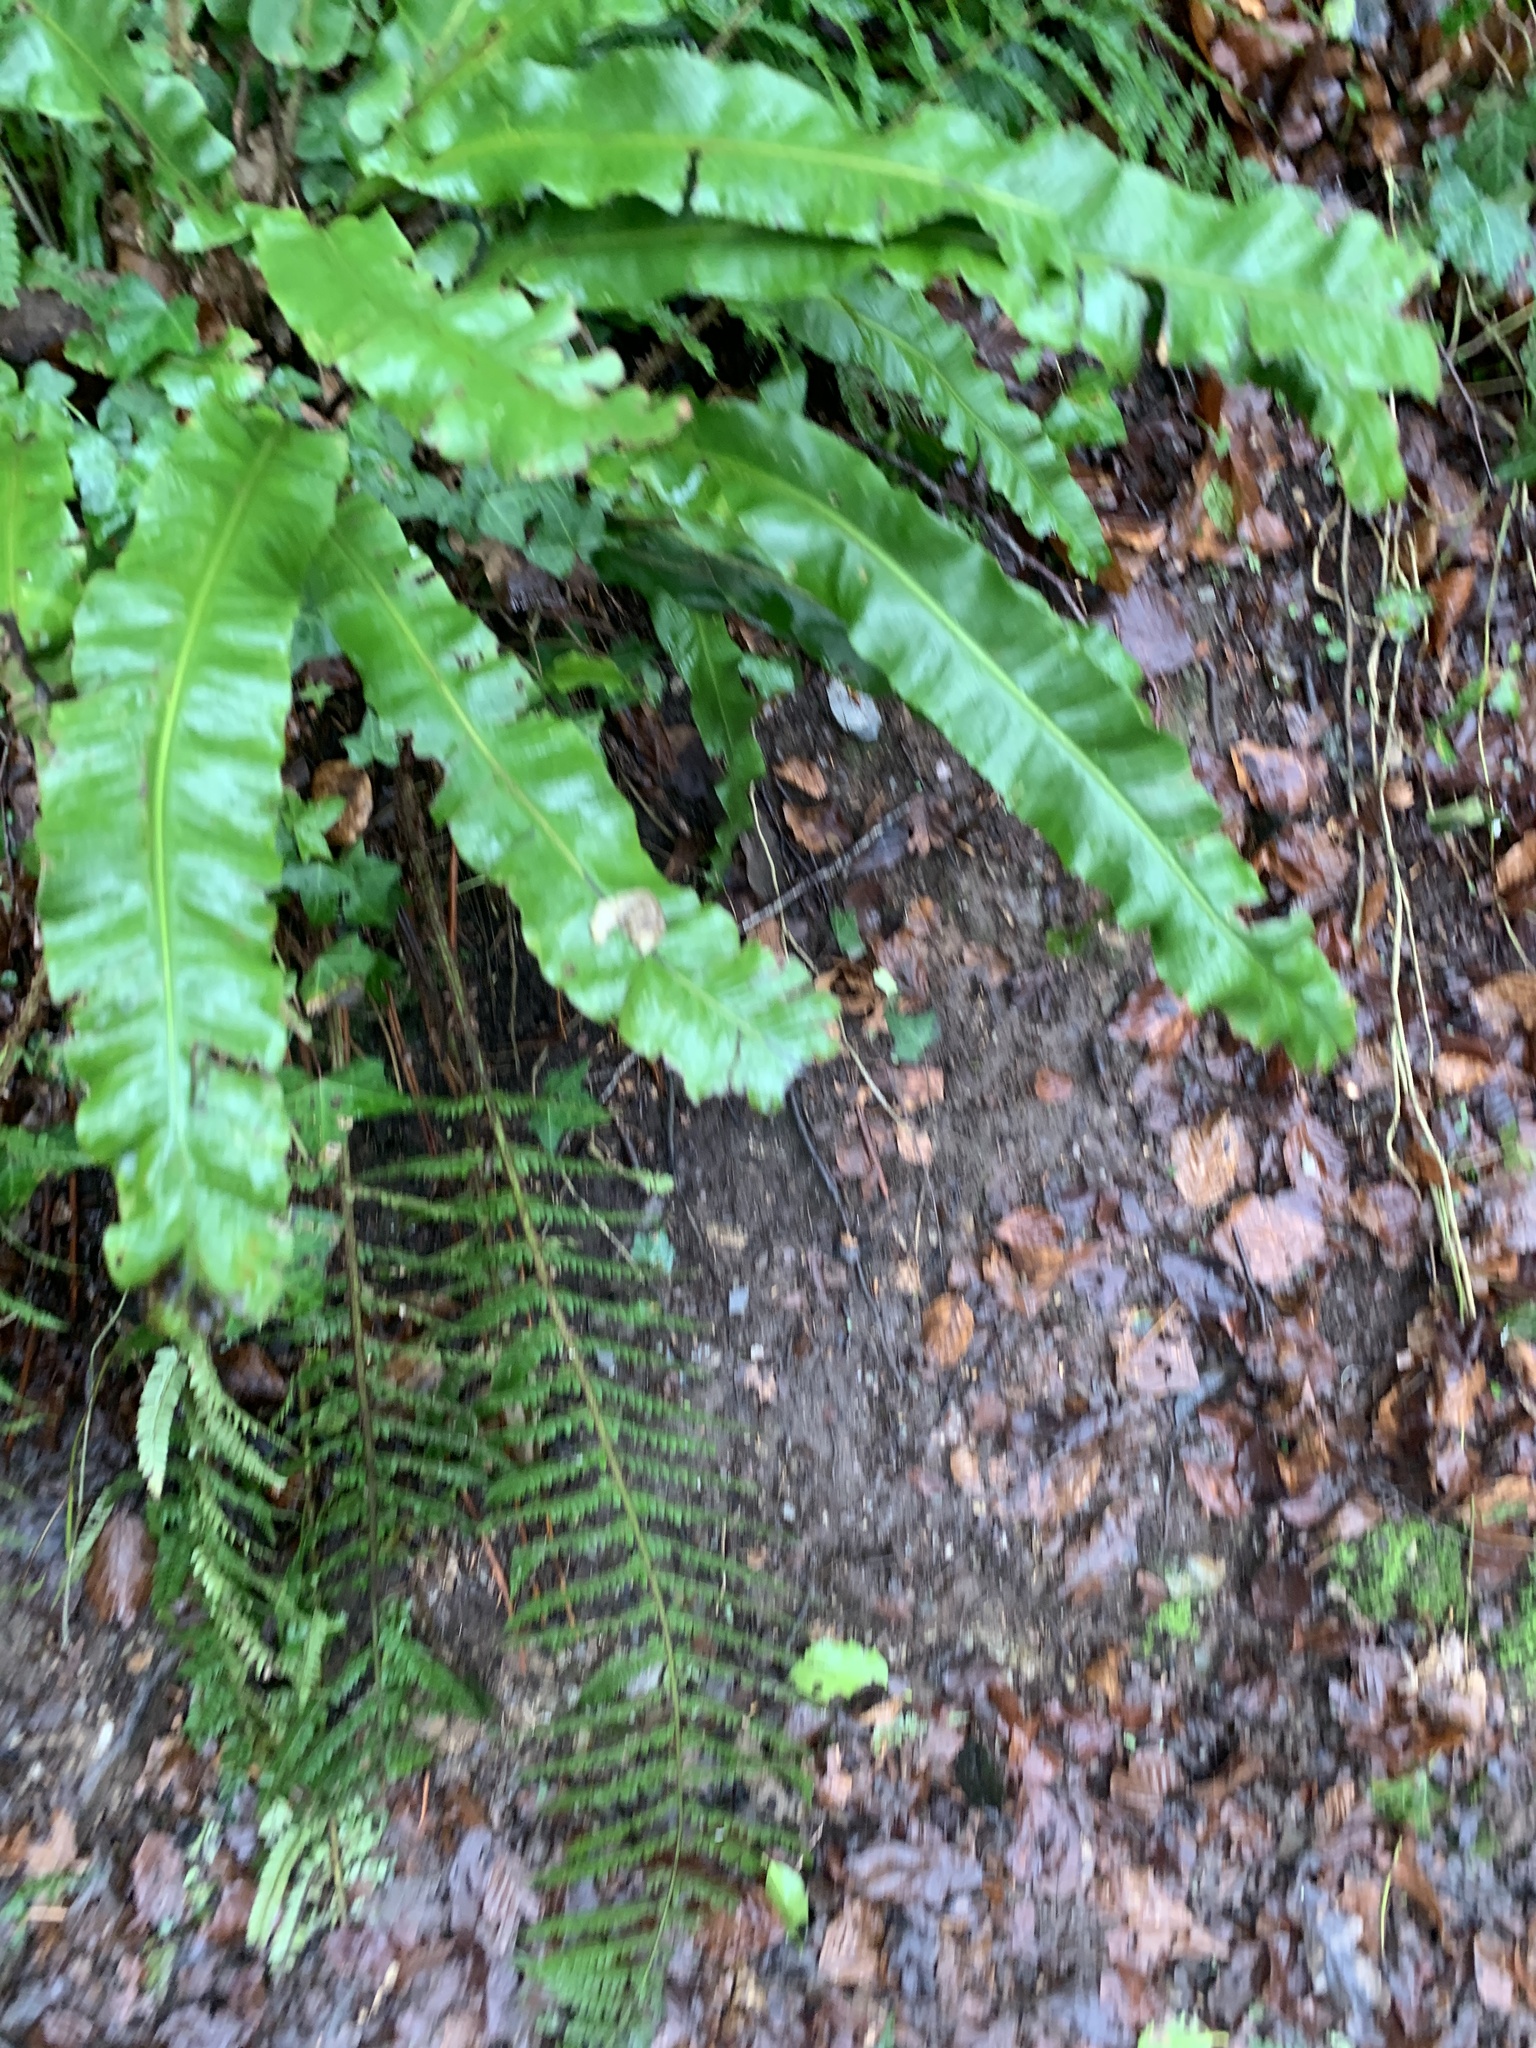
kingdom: Plantae
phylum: Tracheophyta
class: Polypodiopsida
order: Polypodiales
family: Aspleniaceae
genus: Asplenium
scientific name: Asplenium scolopendrium
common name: Hart's-tongue fern
